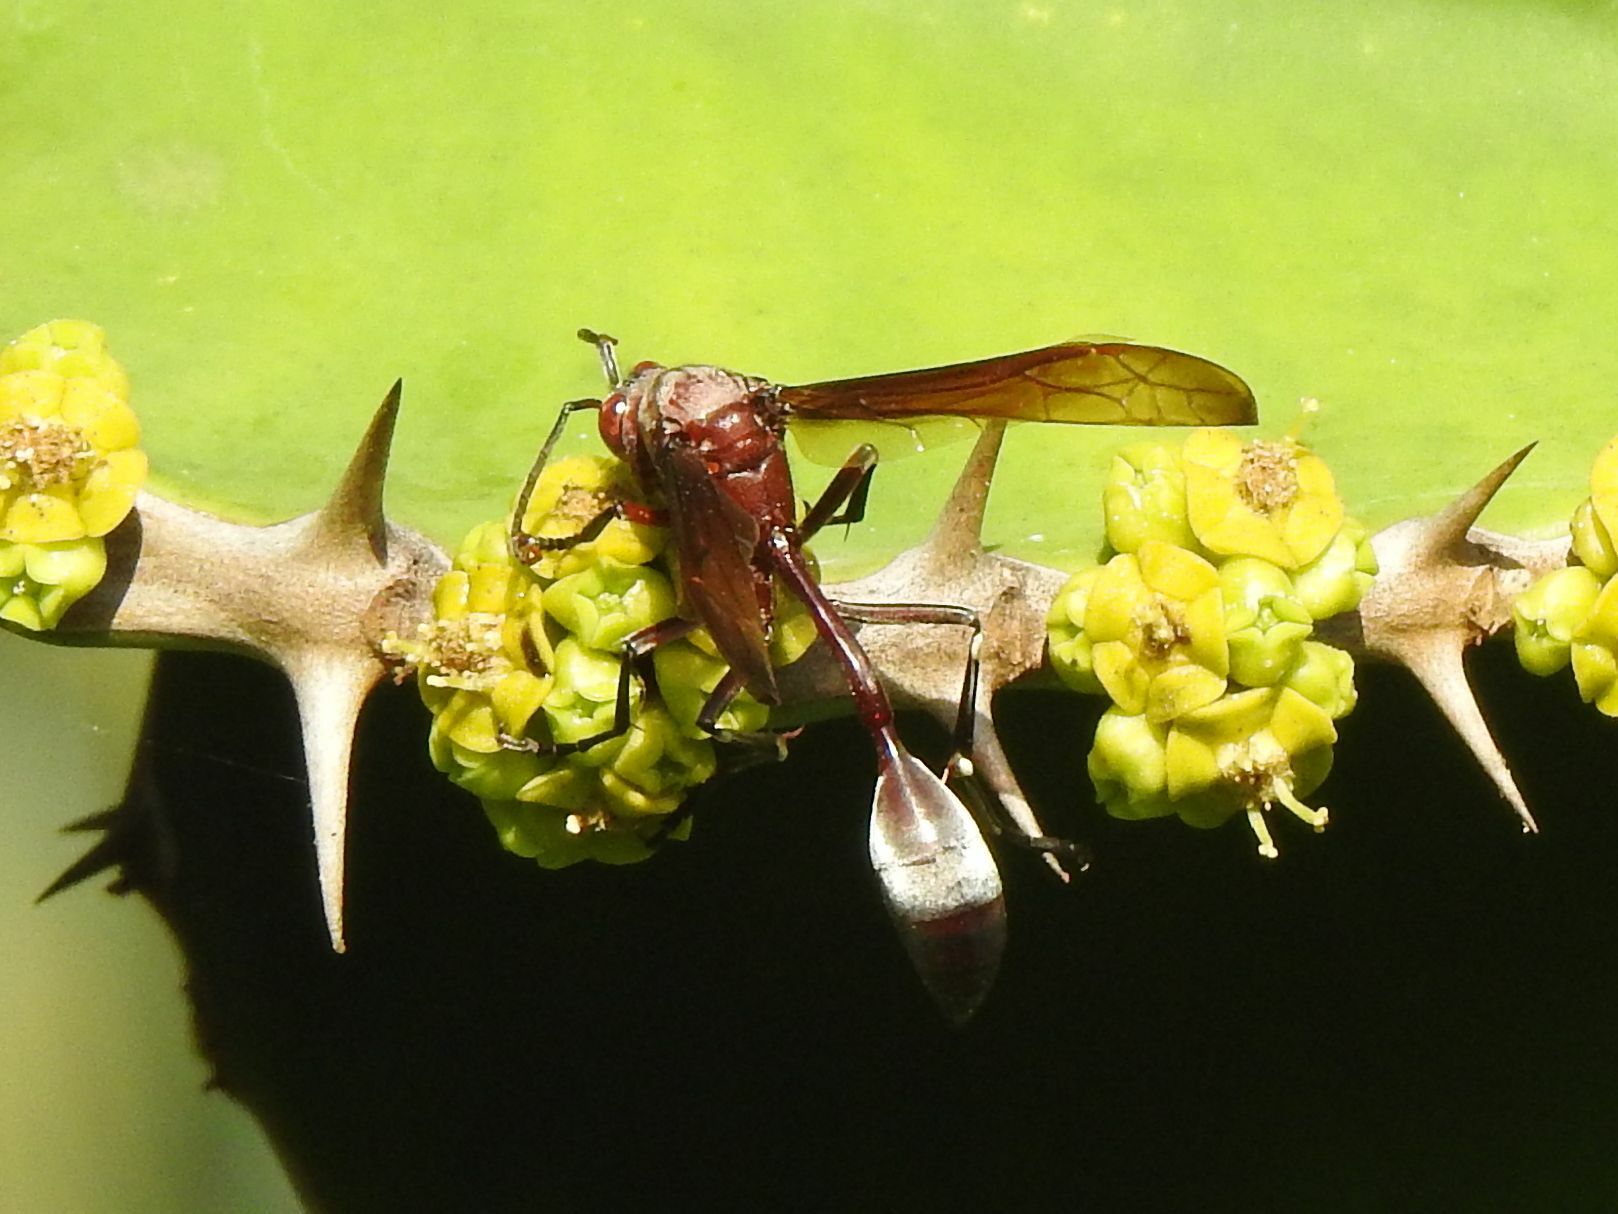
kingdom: Animalia
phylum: Arthropoda
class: Insecta
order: Hymenoptera
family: Eumenidae
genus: Belonogaster
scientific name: Belonogaster
